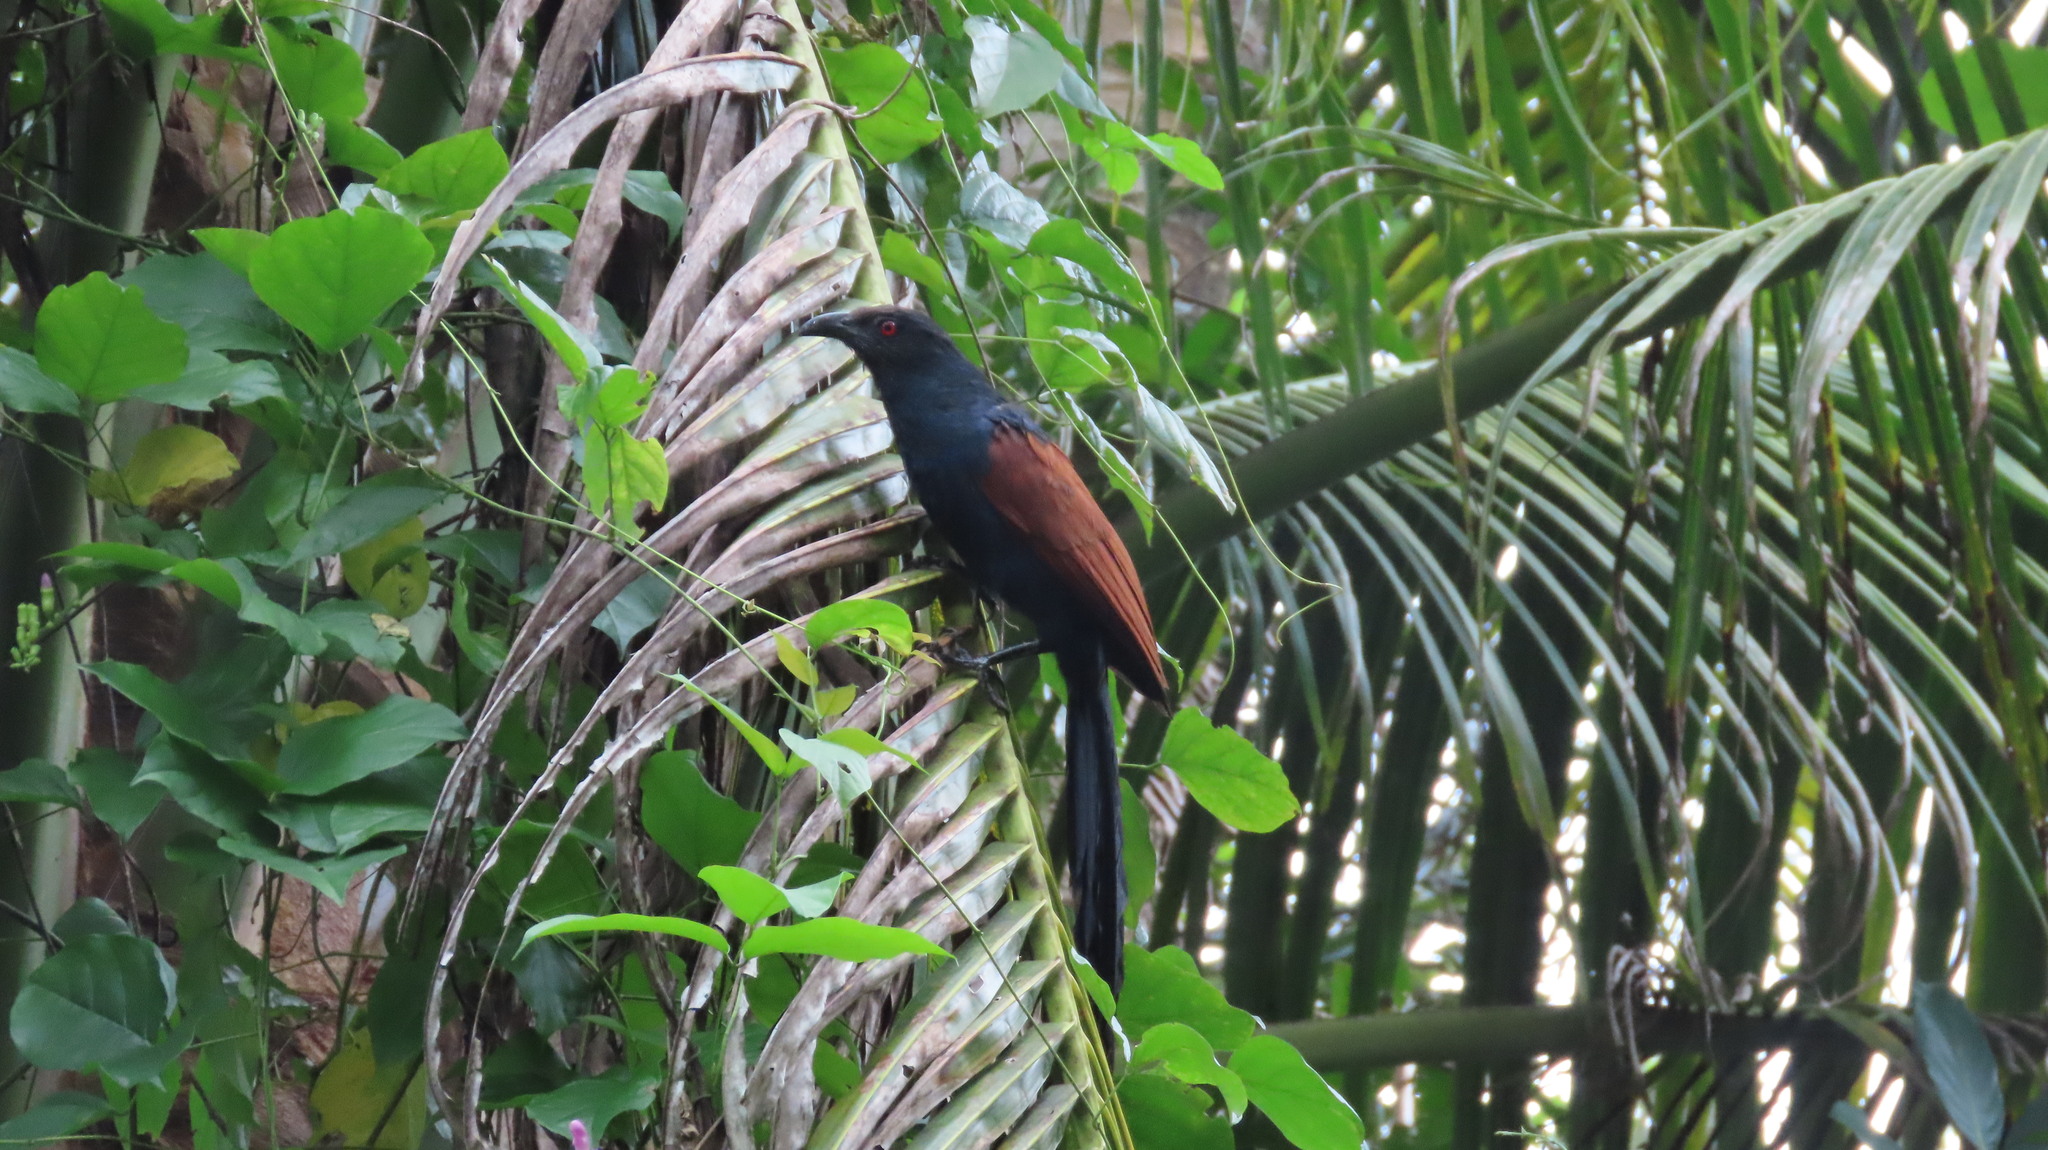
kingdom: Animalia
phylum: Chordata
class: Aves
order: Cuculiformes
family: Cuculidae
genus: Centropus
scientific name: Centropus sinensis
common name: Greater coucal
